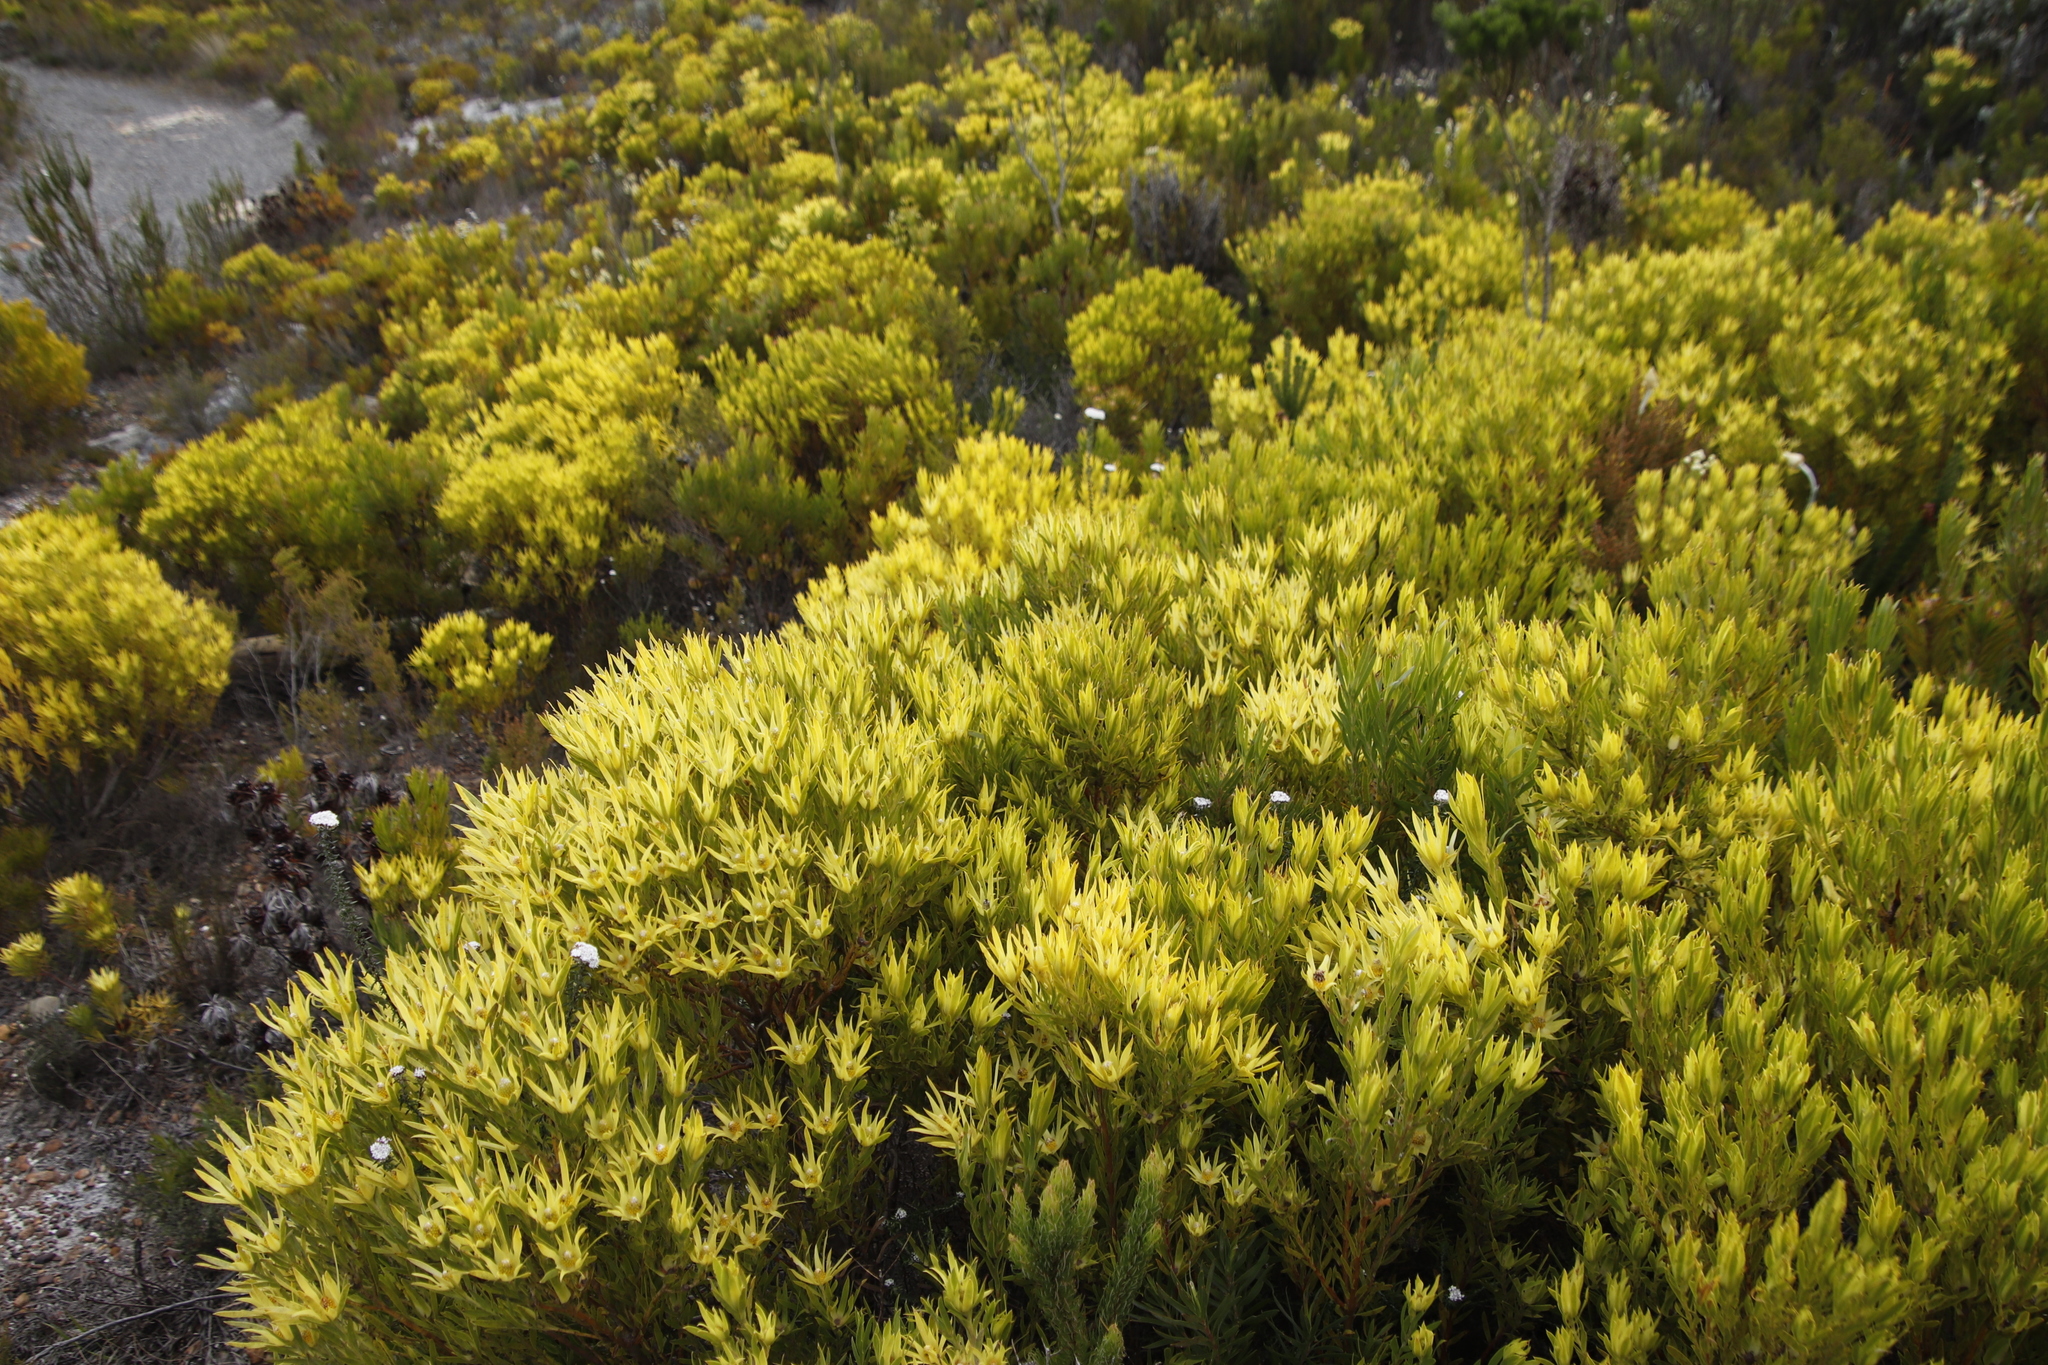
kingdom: Plantae
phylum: Tracheophyta
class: Magnoliopsida
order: Proteales
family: Proteaceae
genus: Leucadendron
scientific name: Leucadendron xanthoconus
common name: Sickle-leaf conebush
